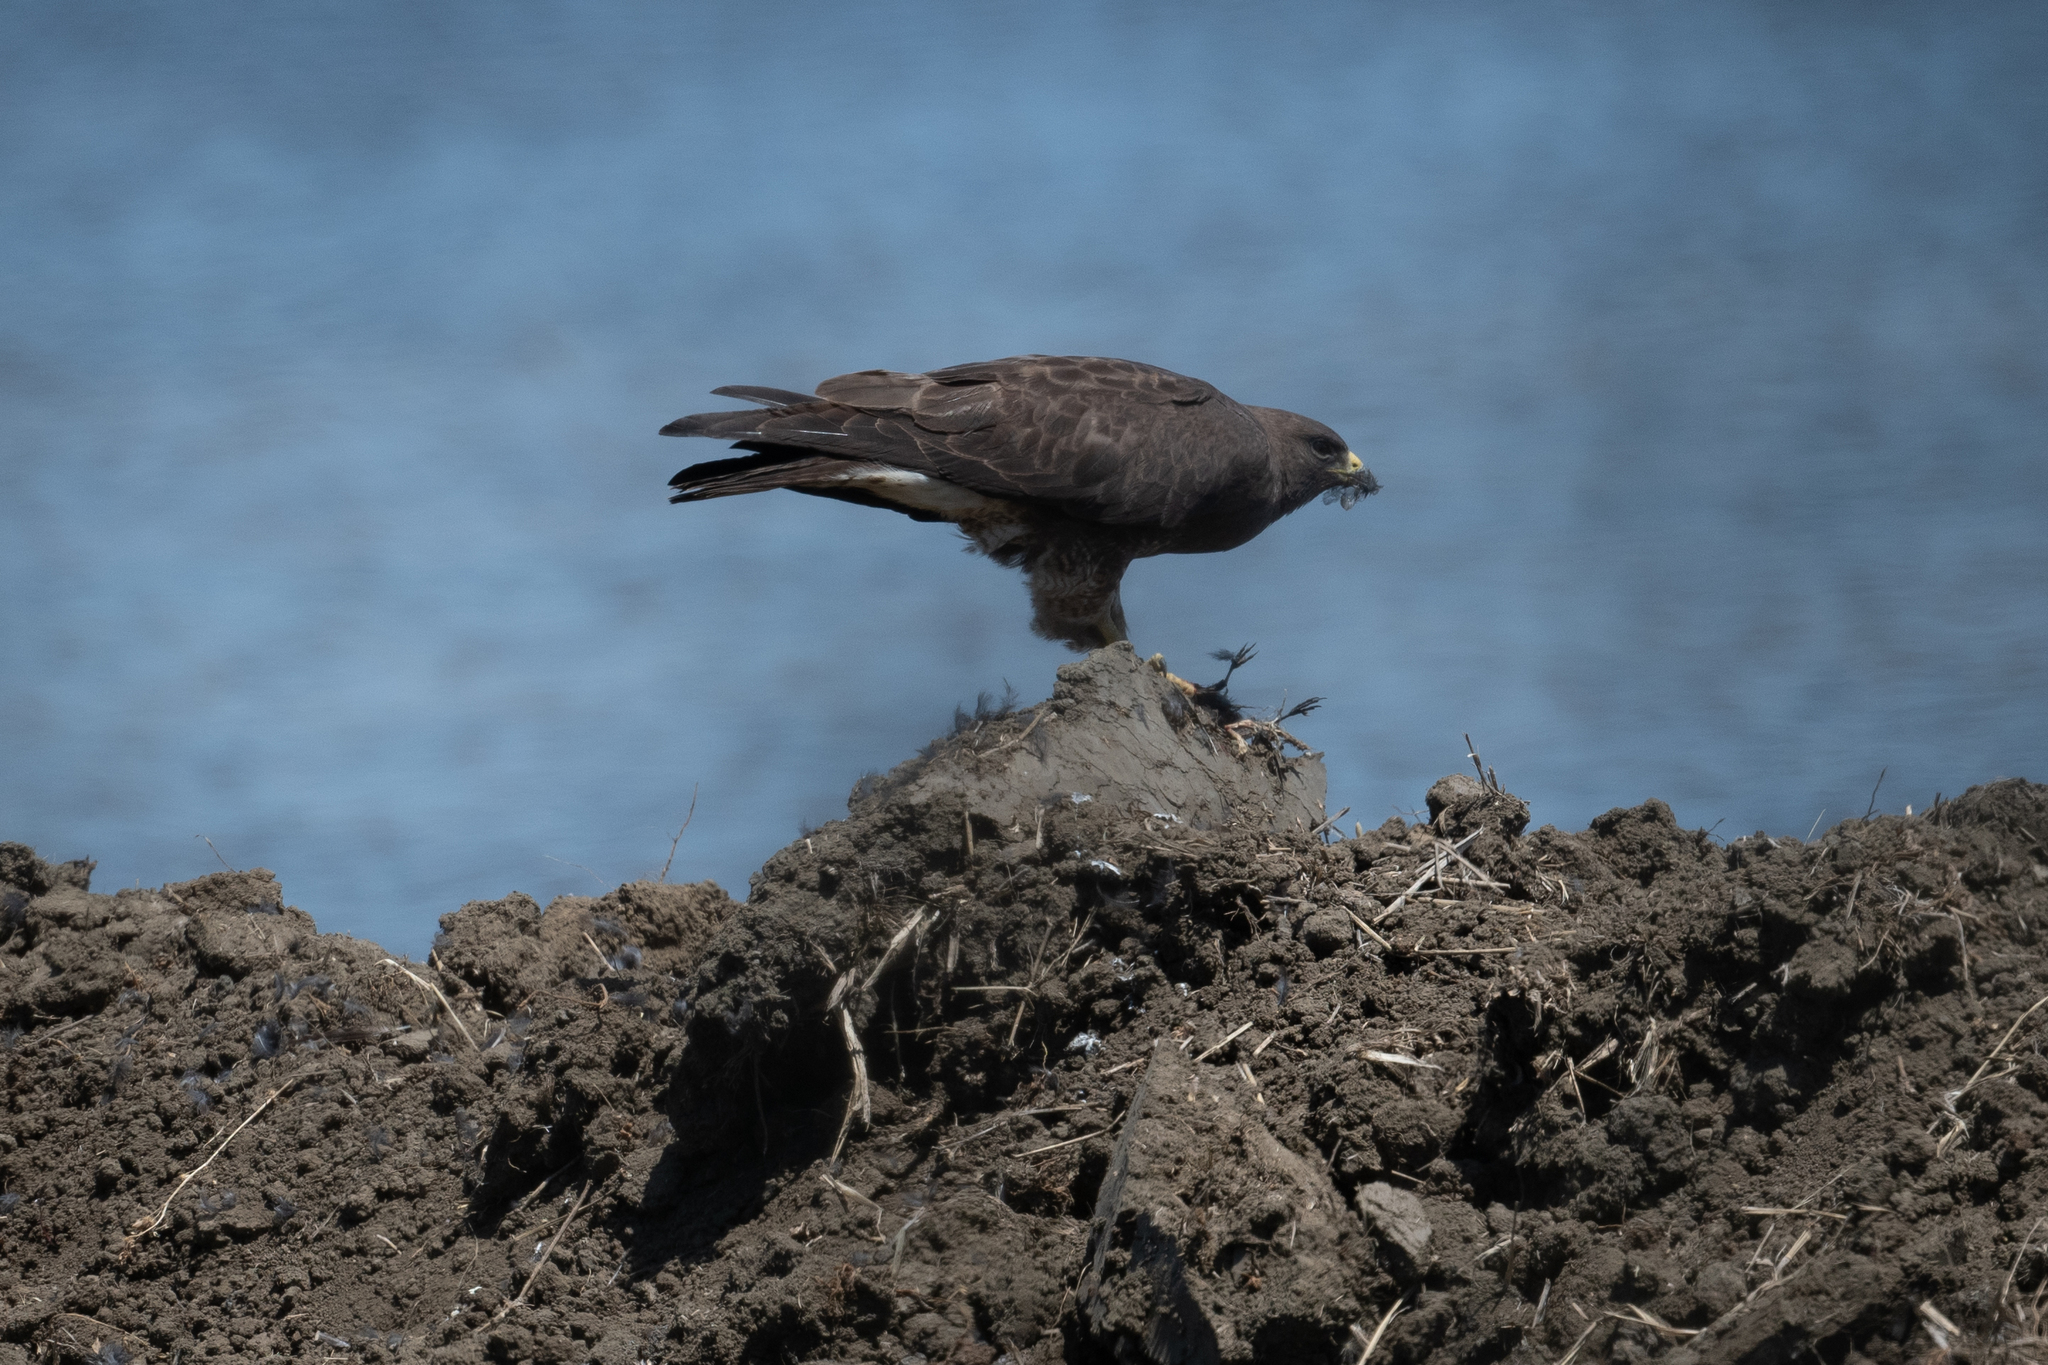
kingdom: Animalia
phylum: Chordata
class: Aves
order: Accipitriformes
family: Accipitridae
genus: Buteo
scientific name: Buteo swainsoni
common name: Swainson's hawk
